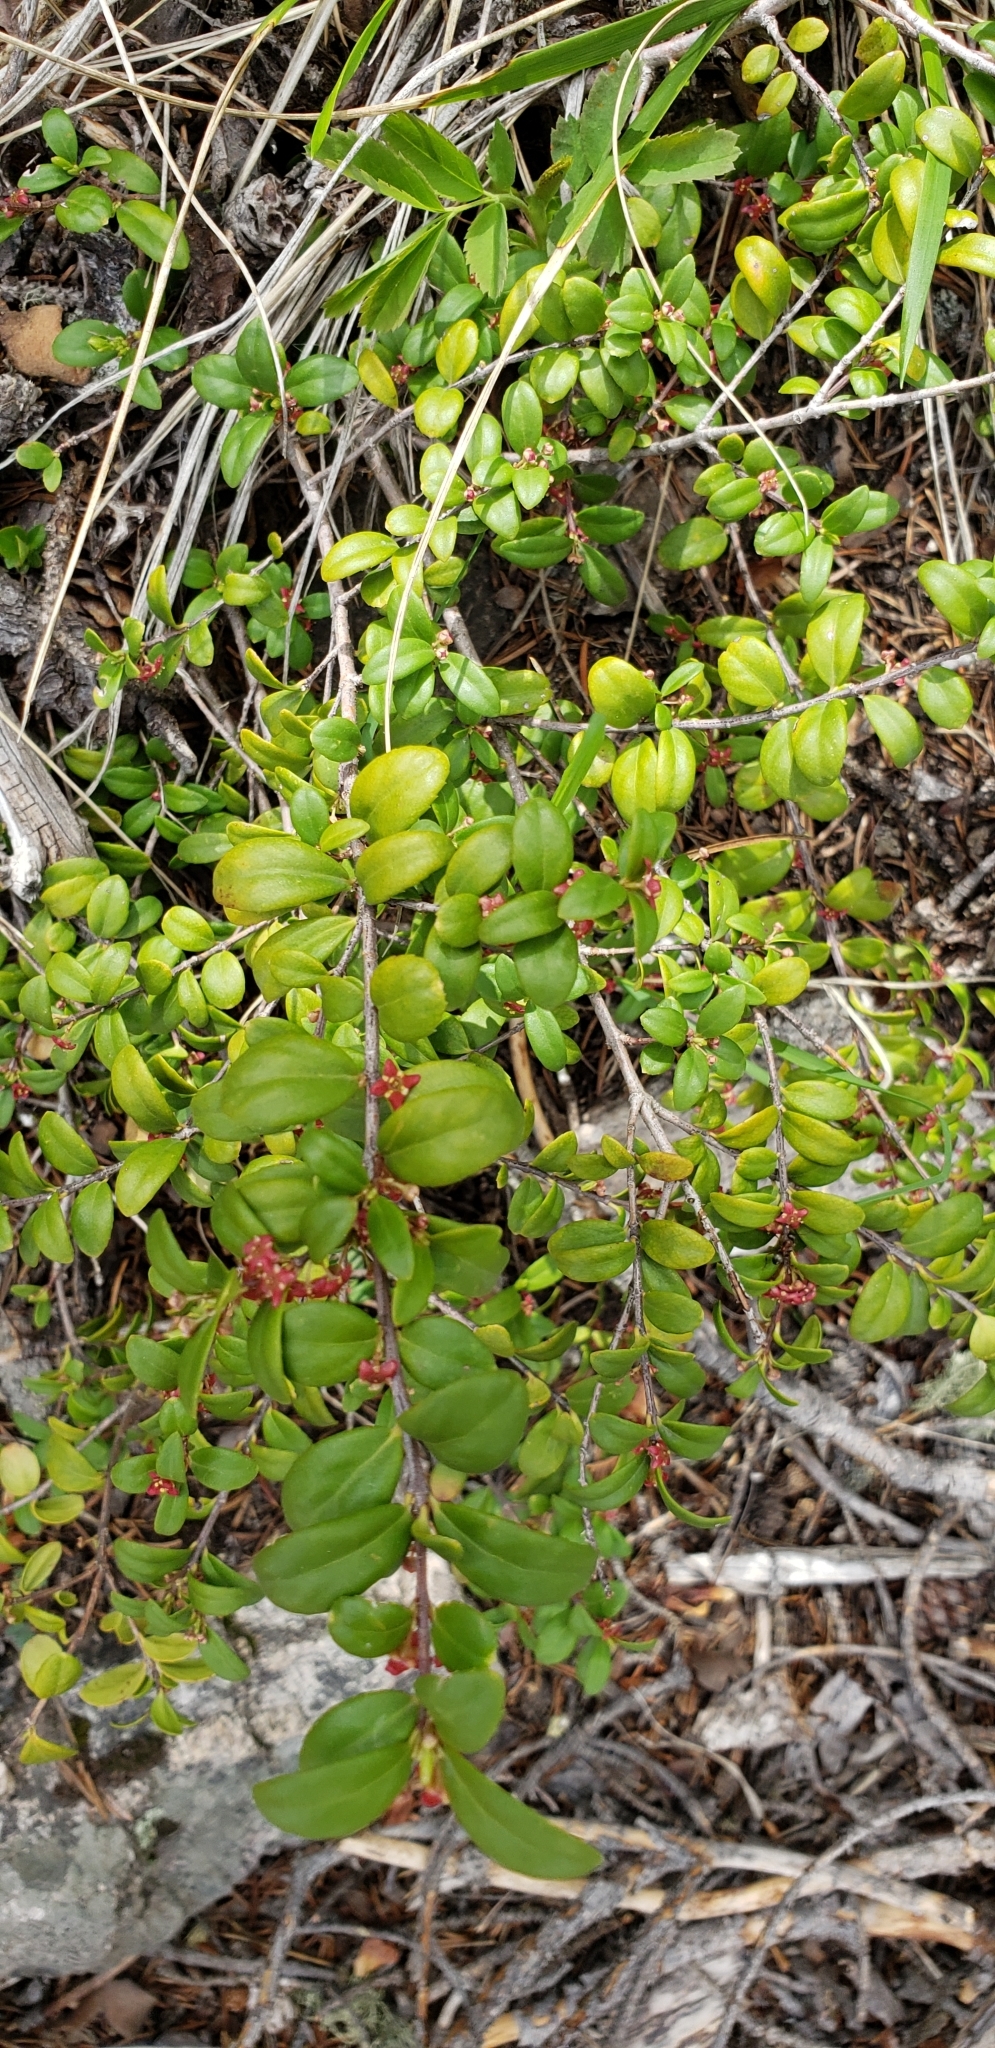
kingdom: Plantae
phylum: Tracheophyta
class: Magnoliopsida
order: Celastrales
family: Celastraceae
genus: Paxistima
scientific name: Paxistima myrsinites
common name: Mountain-lover
